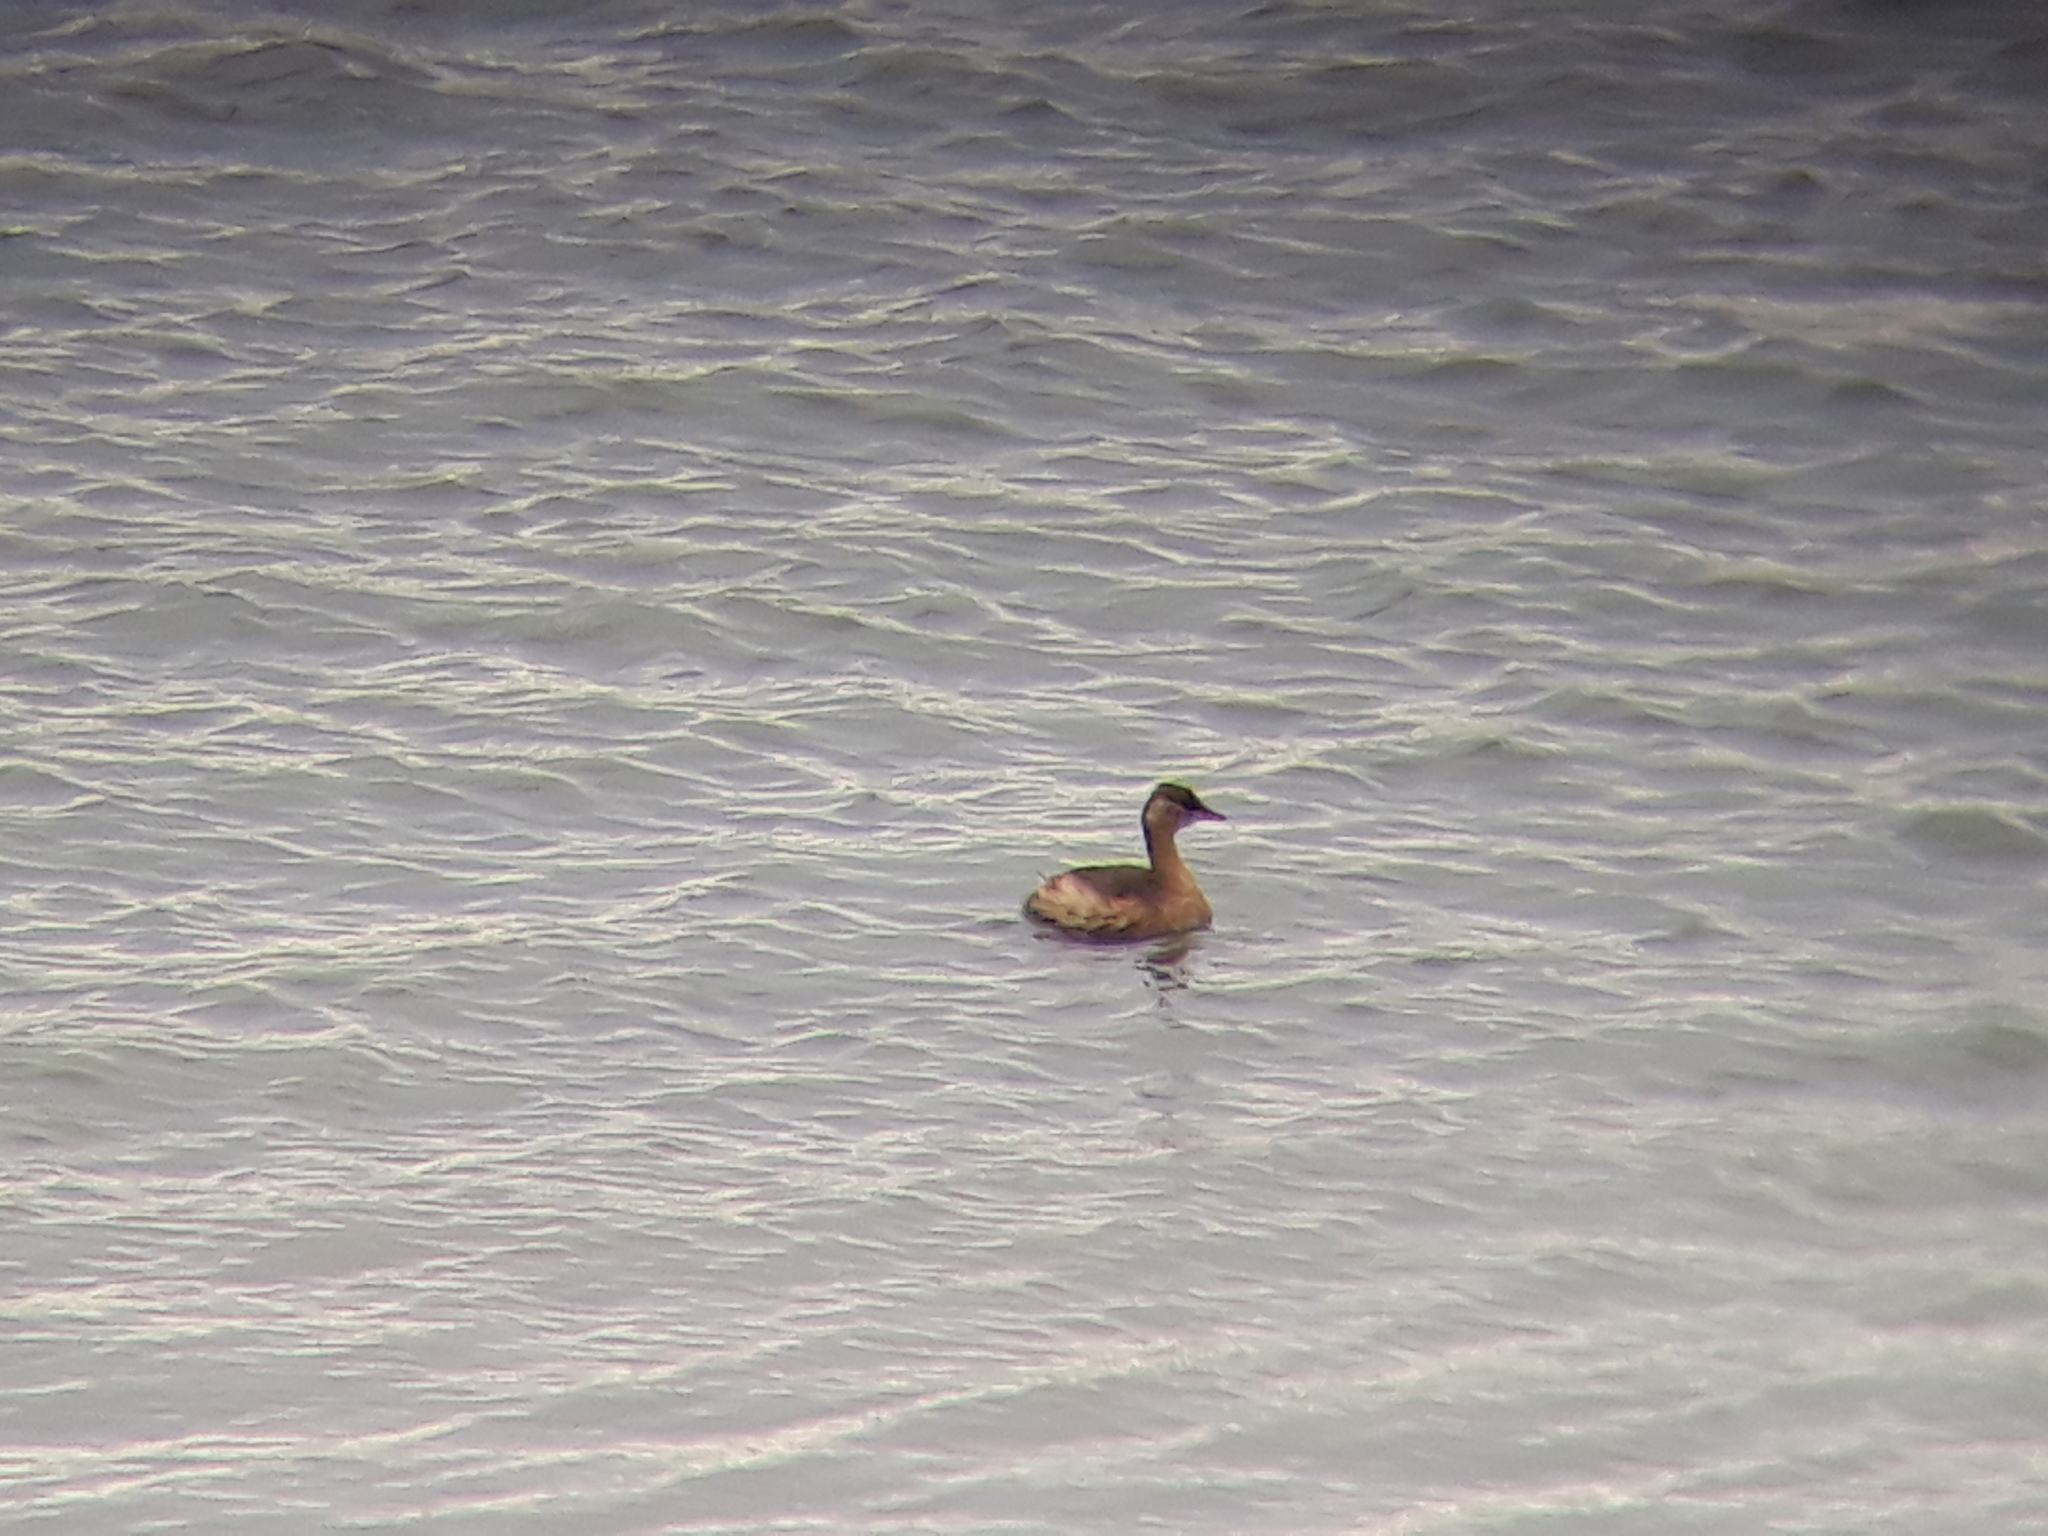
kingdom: Animalia
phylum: Chordata
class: Aves
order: Podicipediformes
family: Podicipedidae
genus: Tachybaptus
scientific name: Tachybaptus ruficollis
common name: Little grebe
